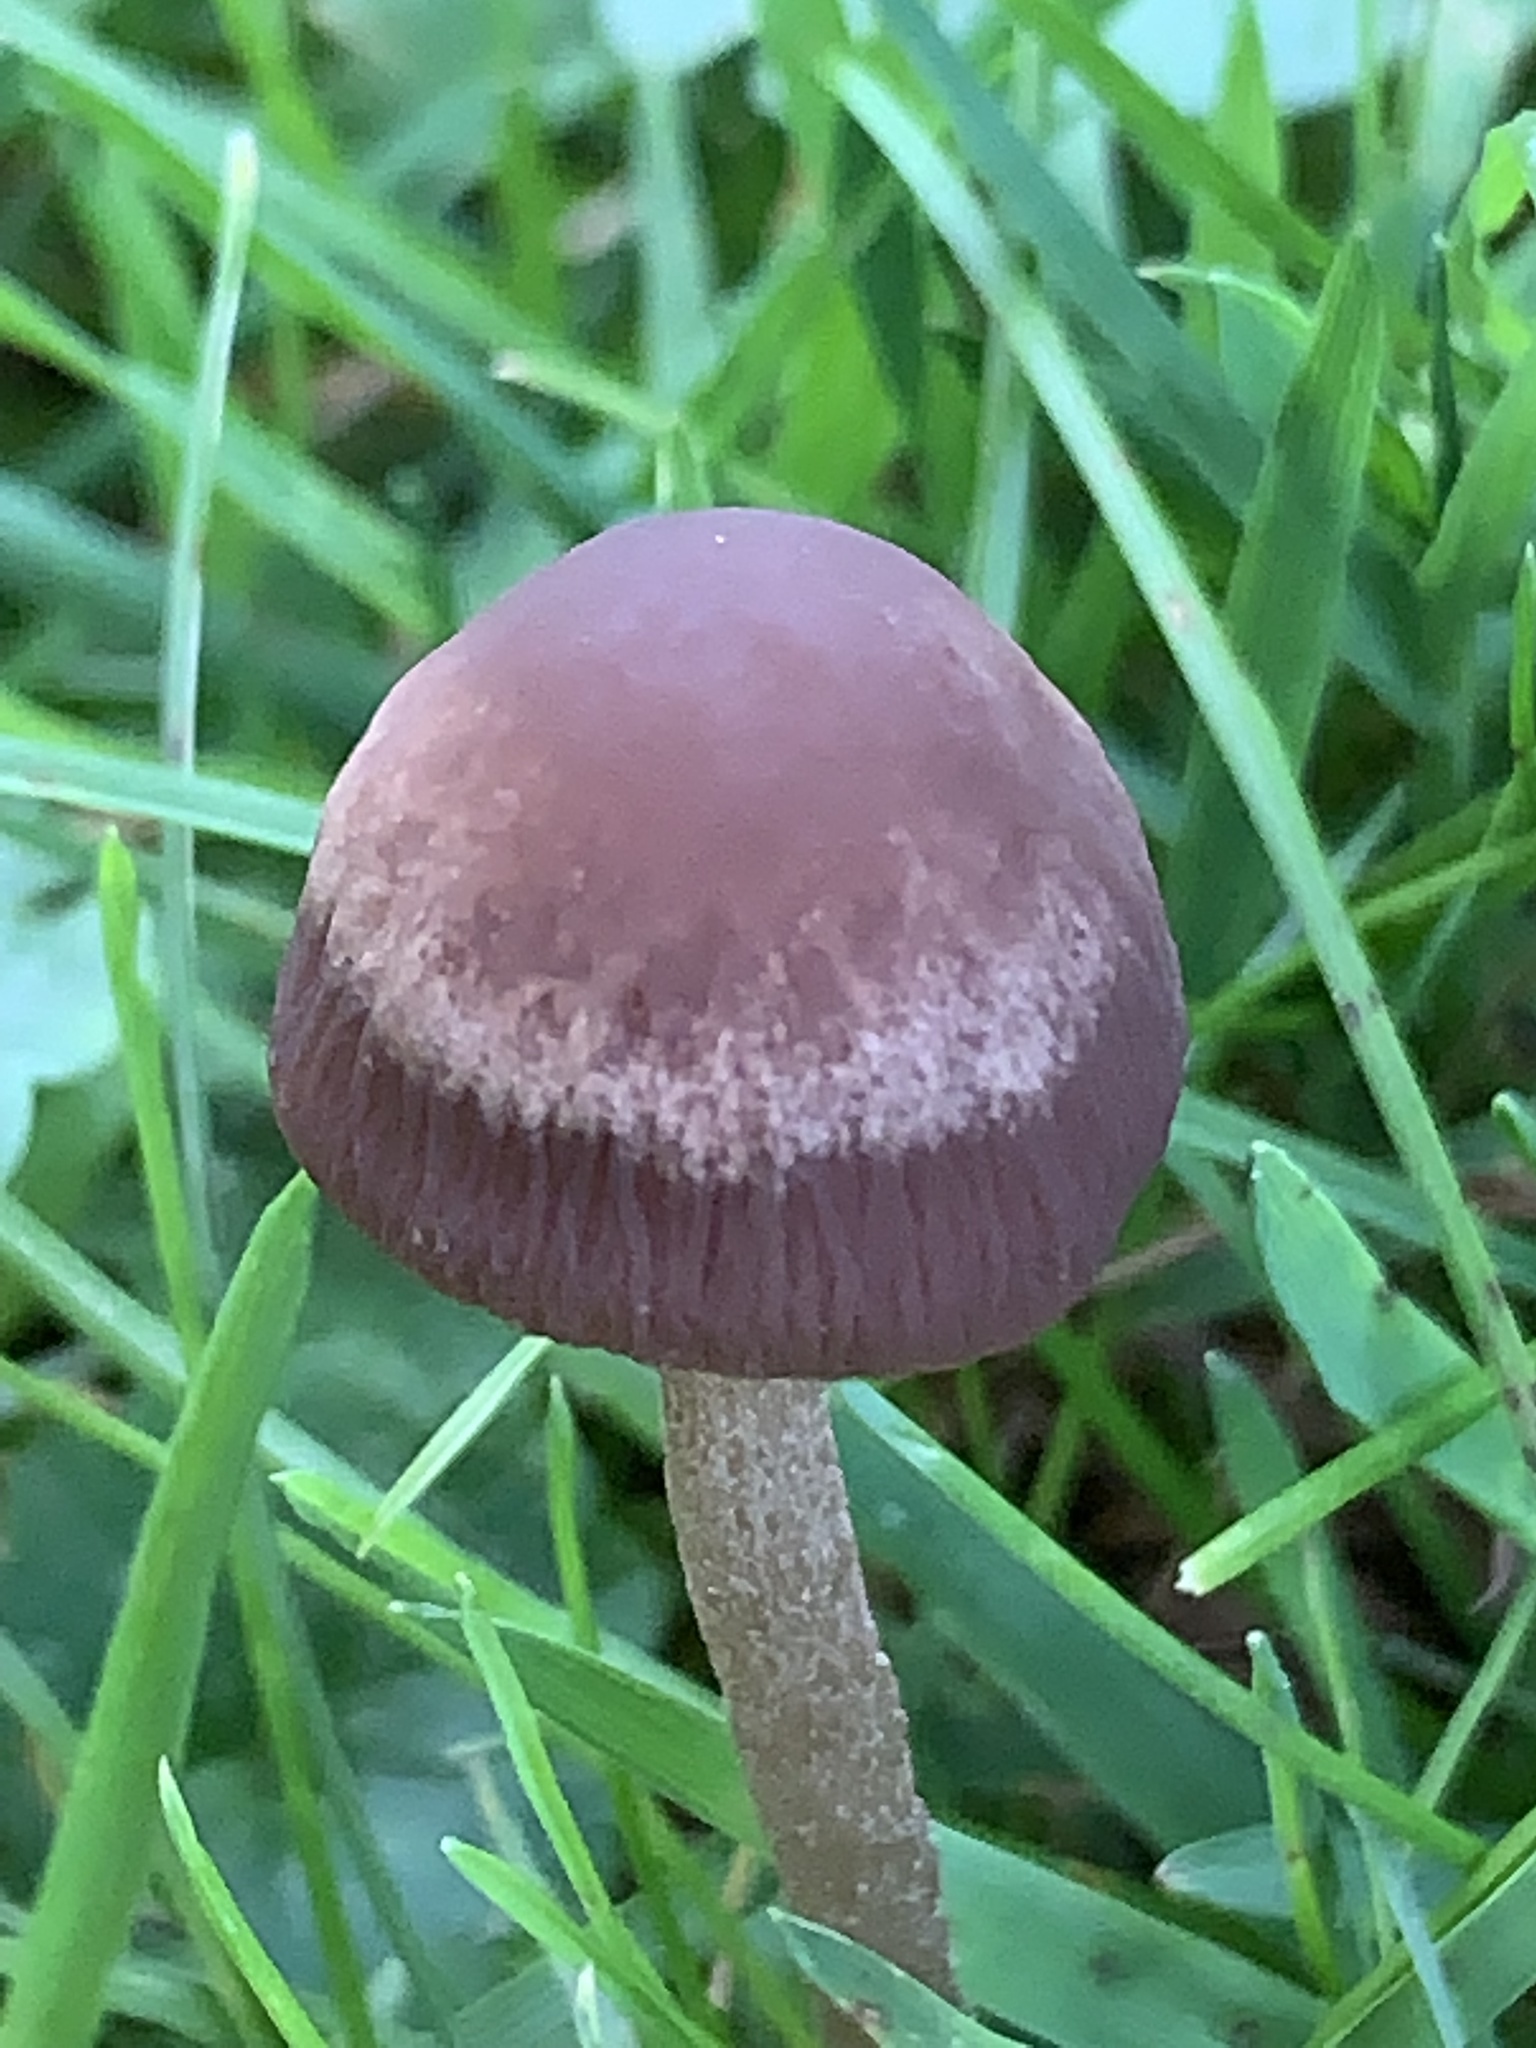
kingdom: Fungi
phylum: Basidiomycota
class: Agaricomycetes
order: Agaricales
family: Bolbitiaceae
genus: Panaeolina
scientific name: Panaeolina foenisecii
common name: Brown hay cap
